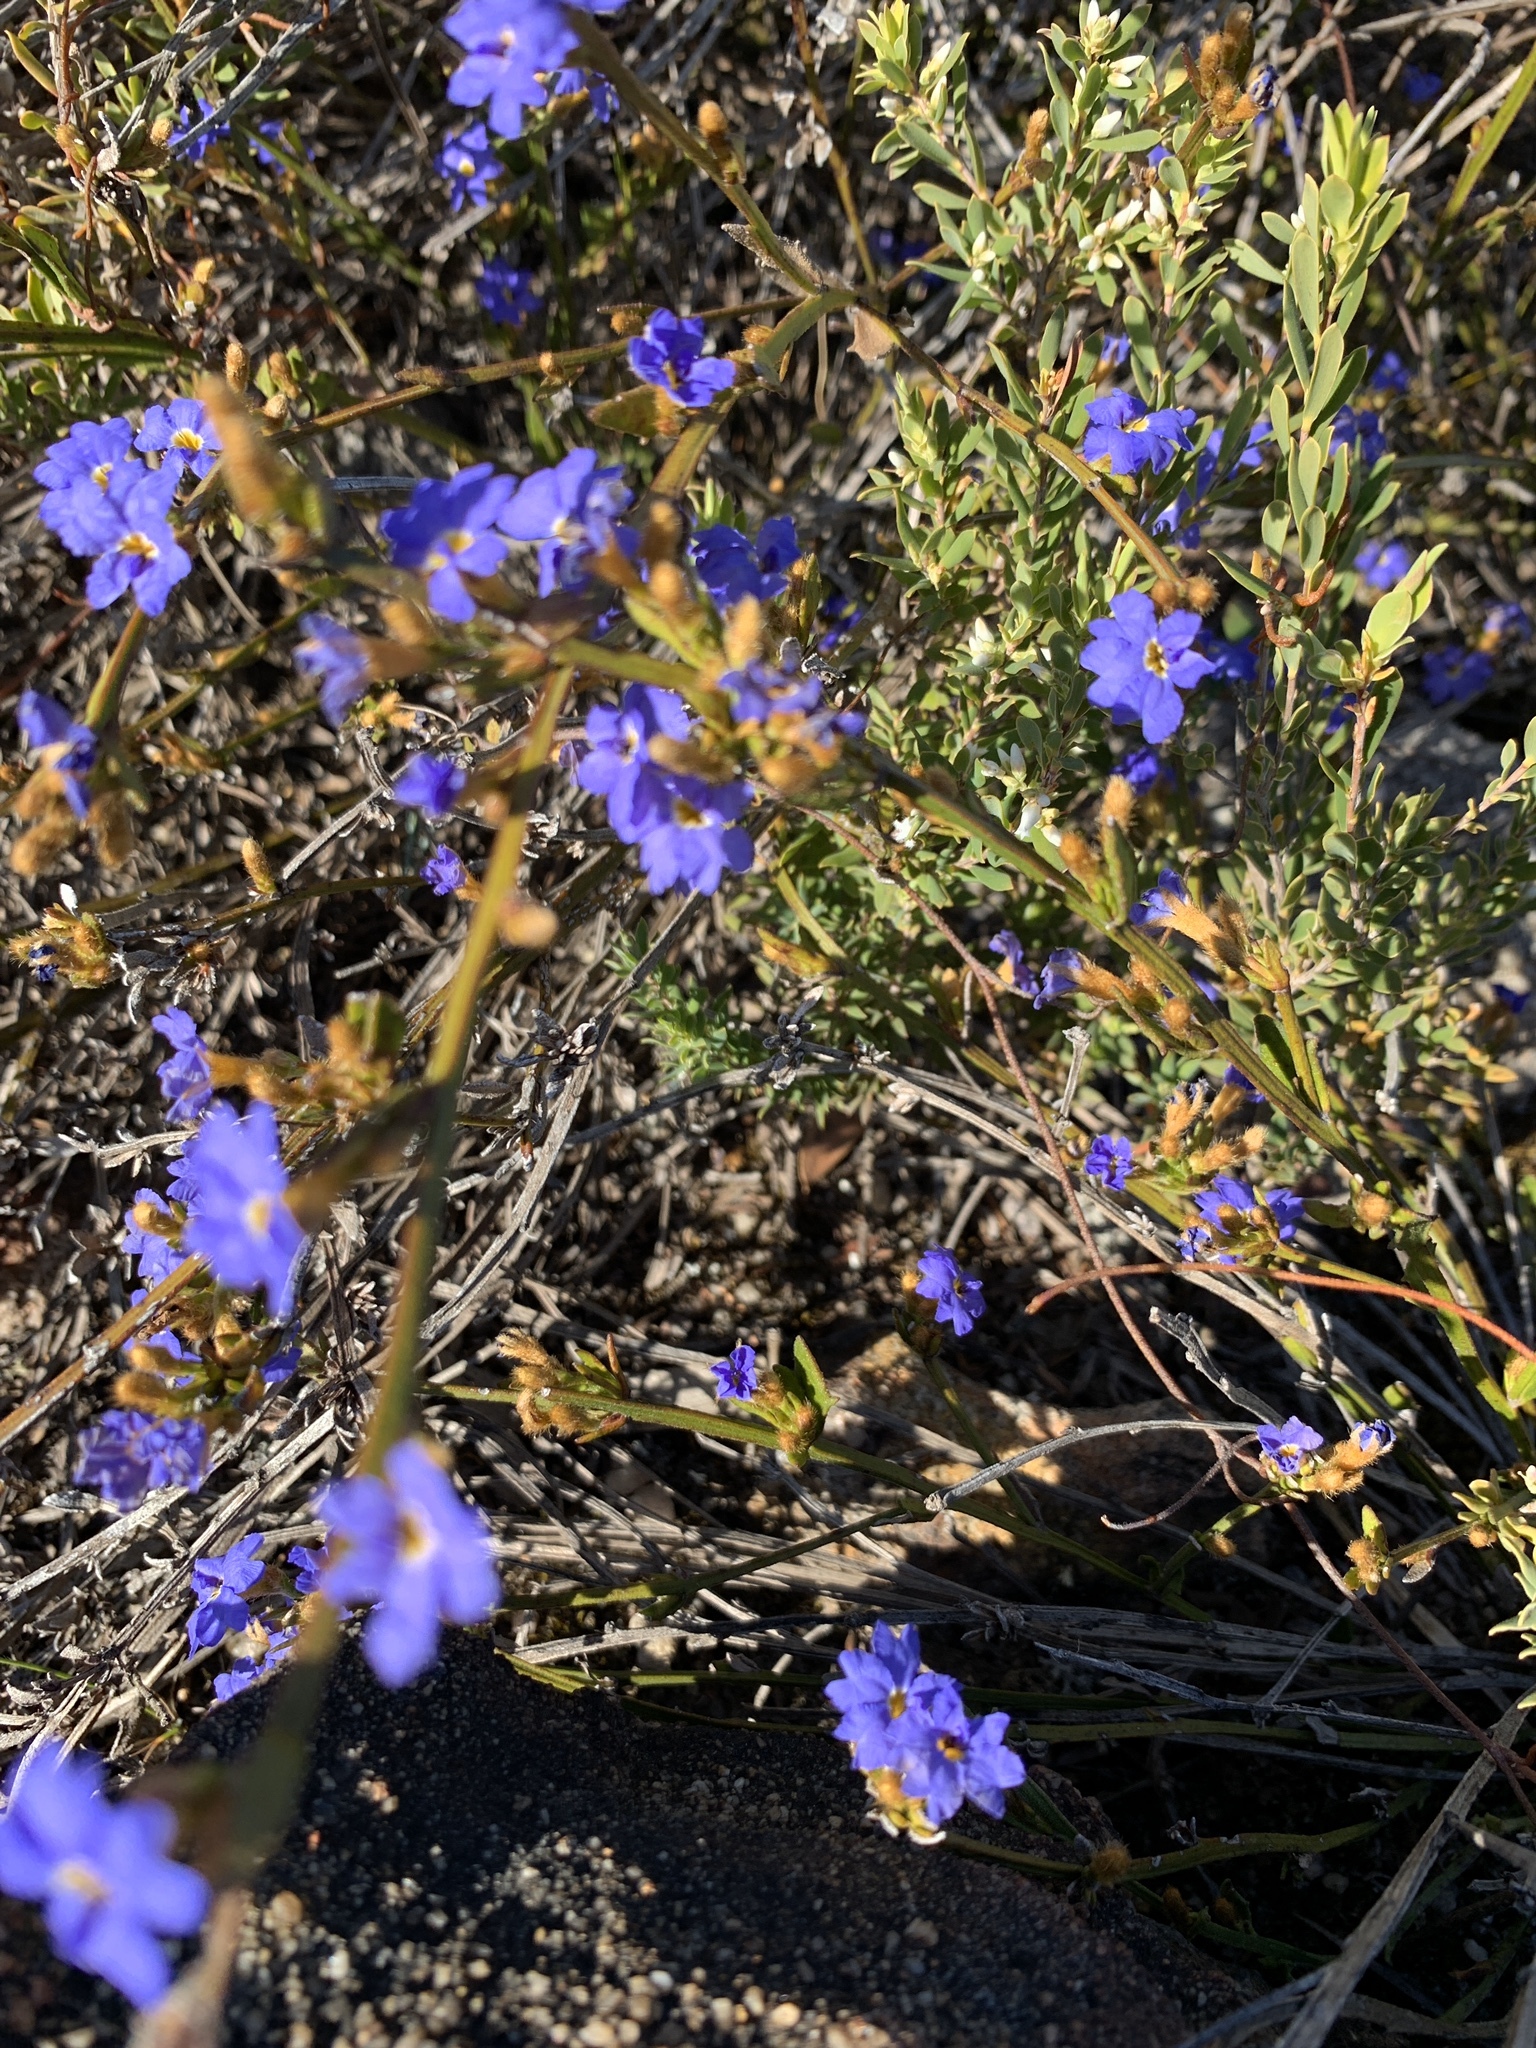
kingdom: Plantae
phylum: Tracheophyta
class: Magnoliopsida
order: Asterales
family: Goodeniaceae
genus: Dampiera
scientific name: Dampiera stricta
